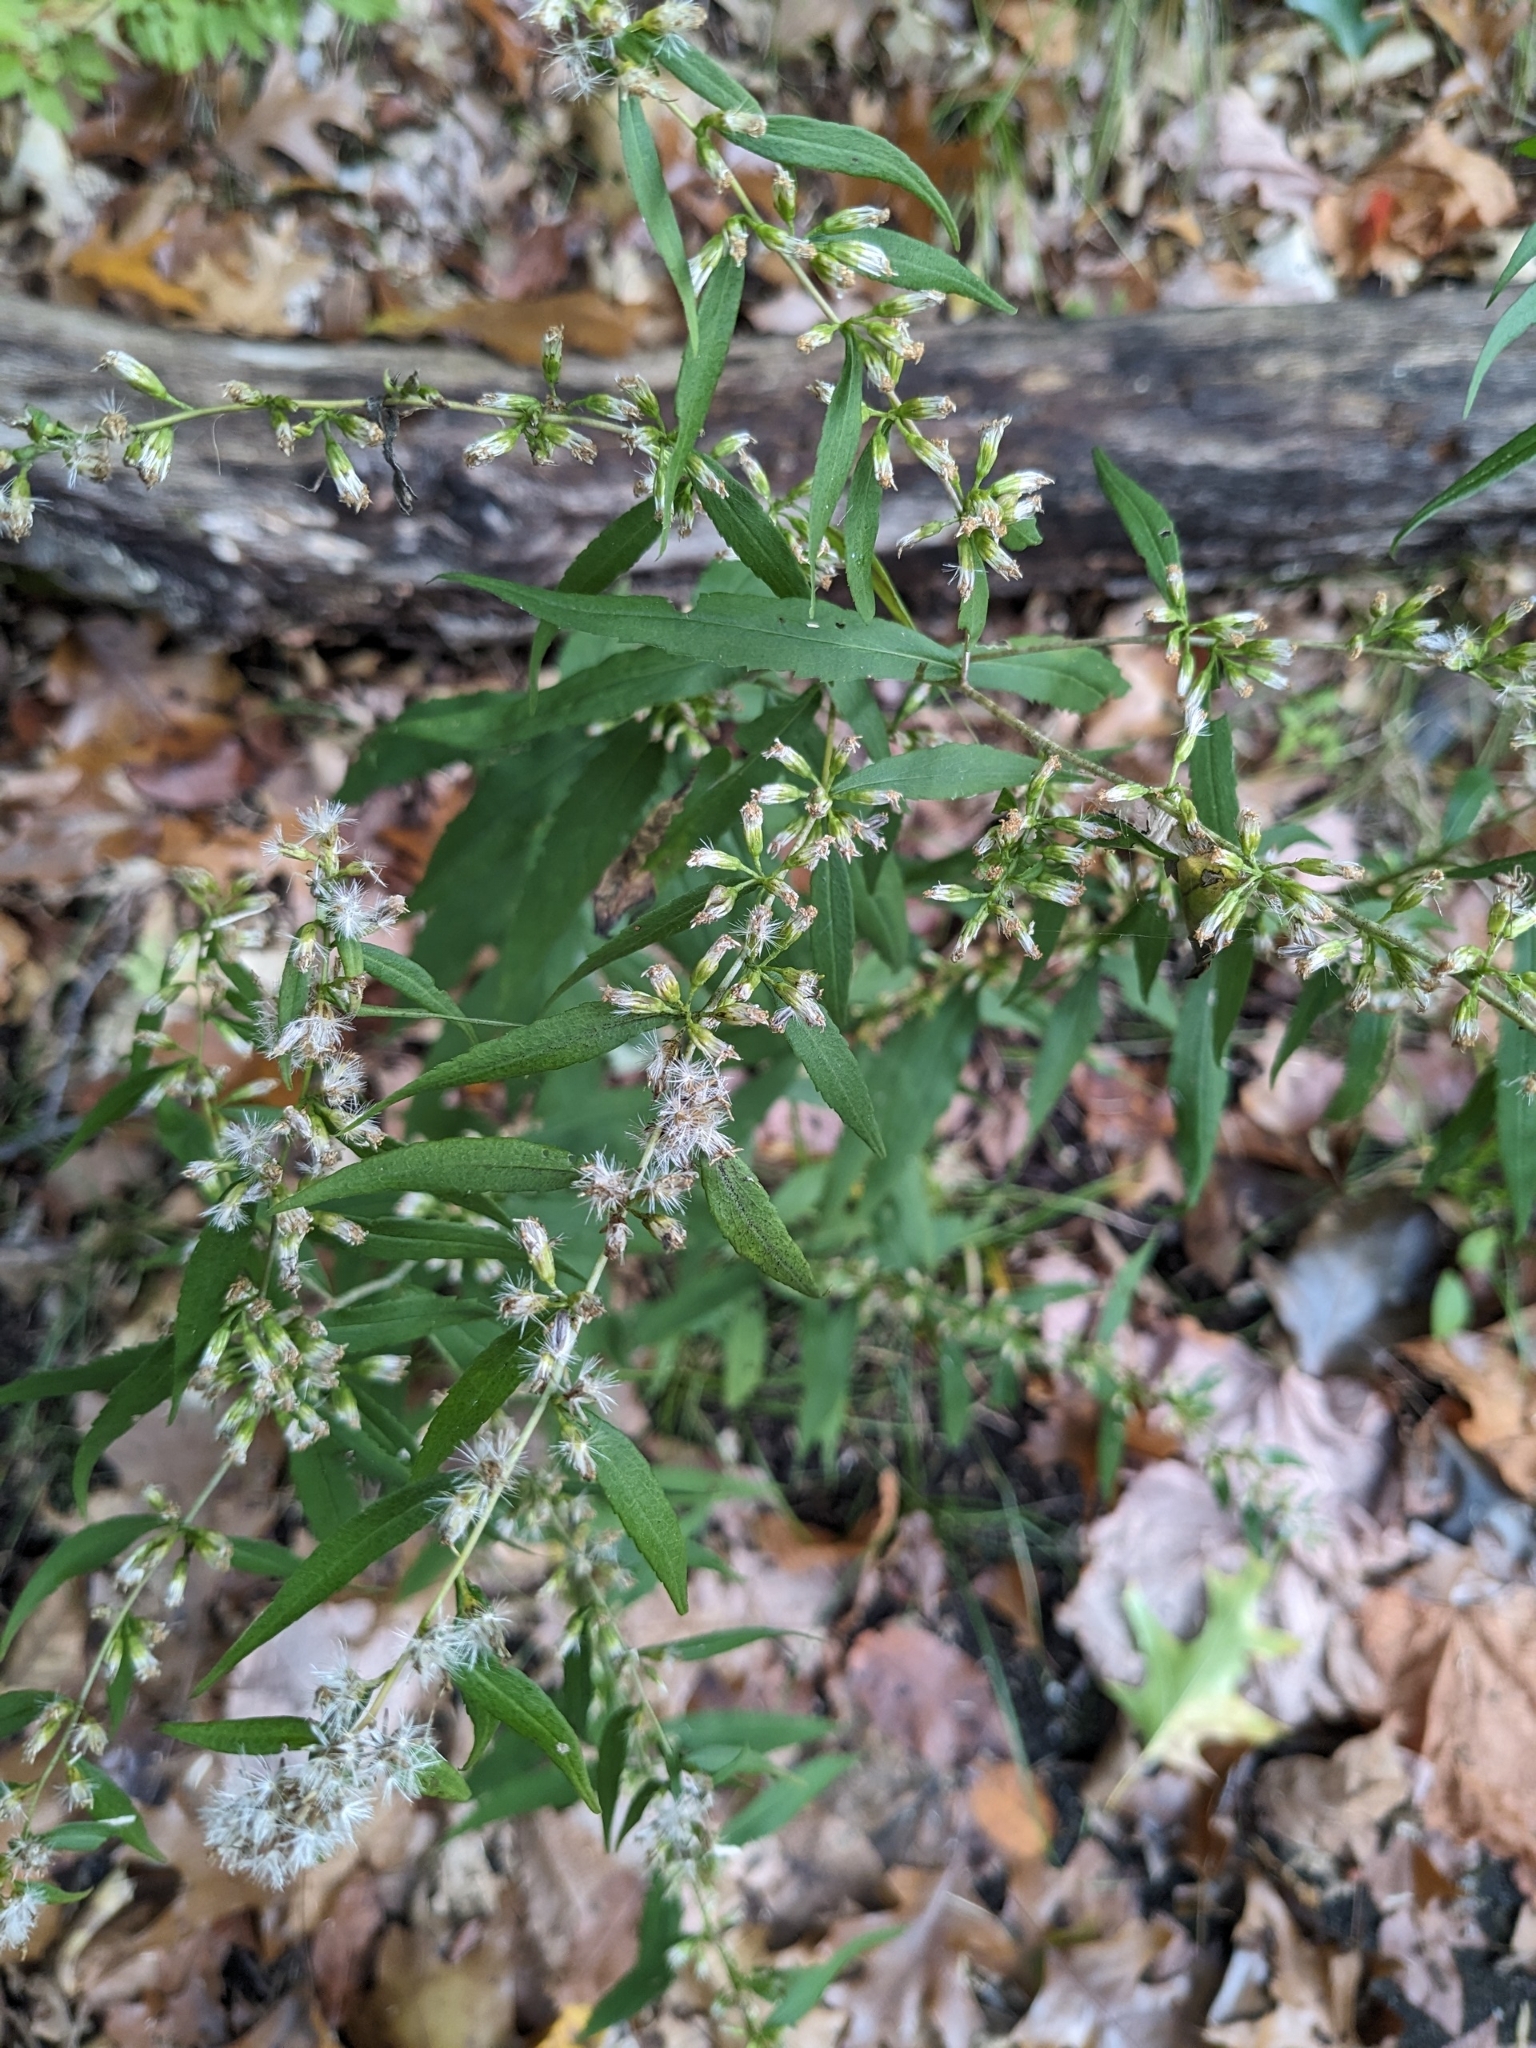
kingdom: Plantae
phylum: Tracheophyta
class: Magnoliopsida
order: Asterales
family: Asteraceae
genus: Solidago
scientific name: Solidago caesia
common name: Woodland goldenrod
